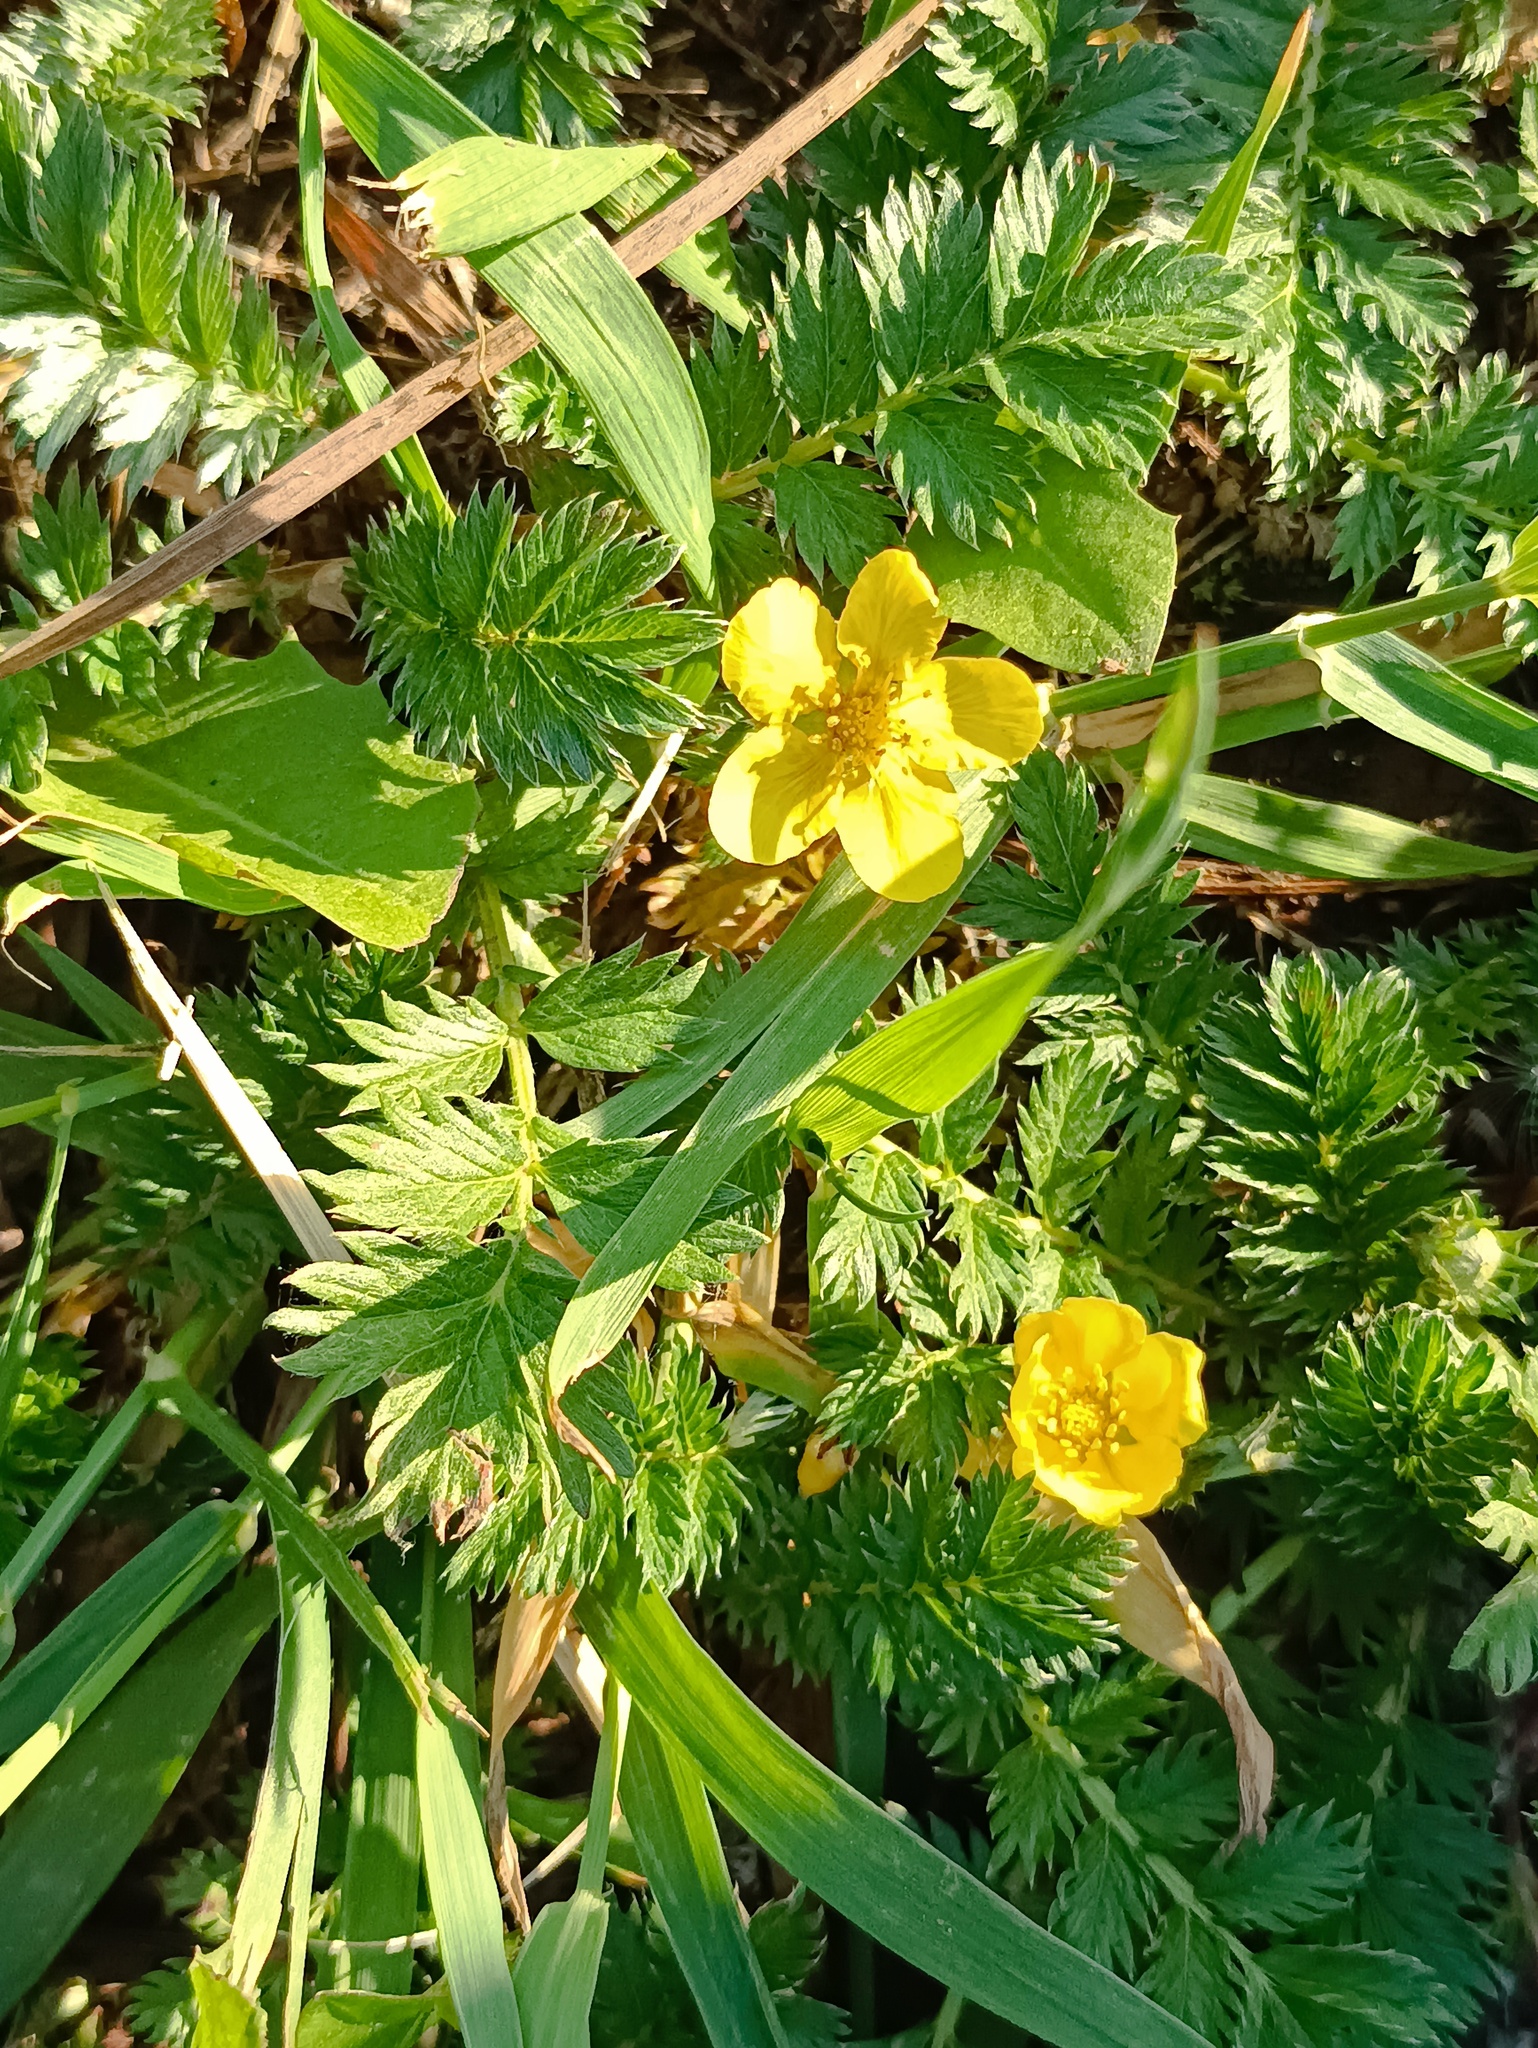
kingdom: Plantae
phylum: Tracheophyta
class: Magnoliopsida
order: Rosales
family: Rosaceae
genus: Argentina
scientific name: Argentina anserina
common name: Common silverweed
